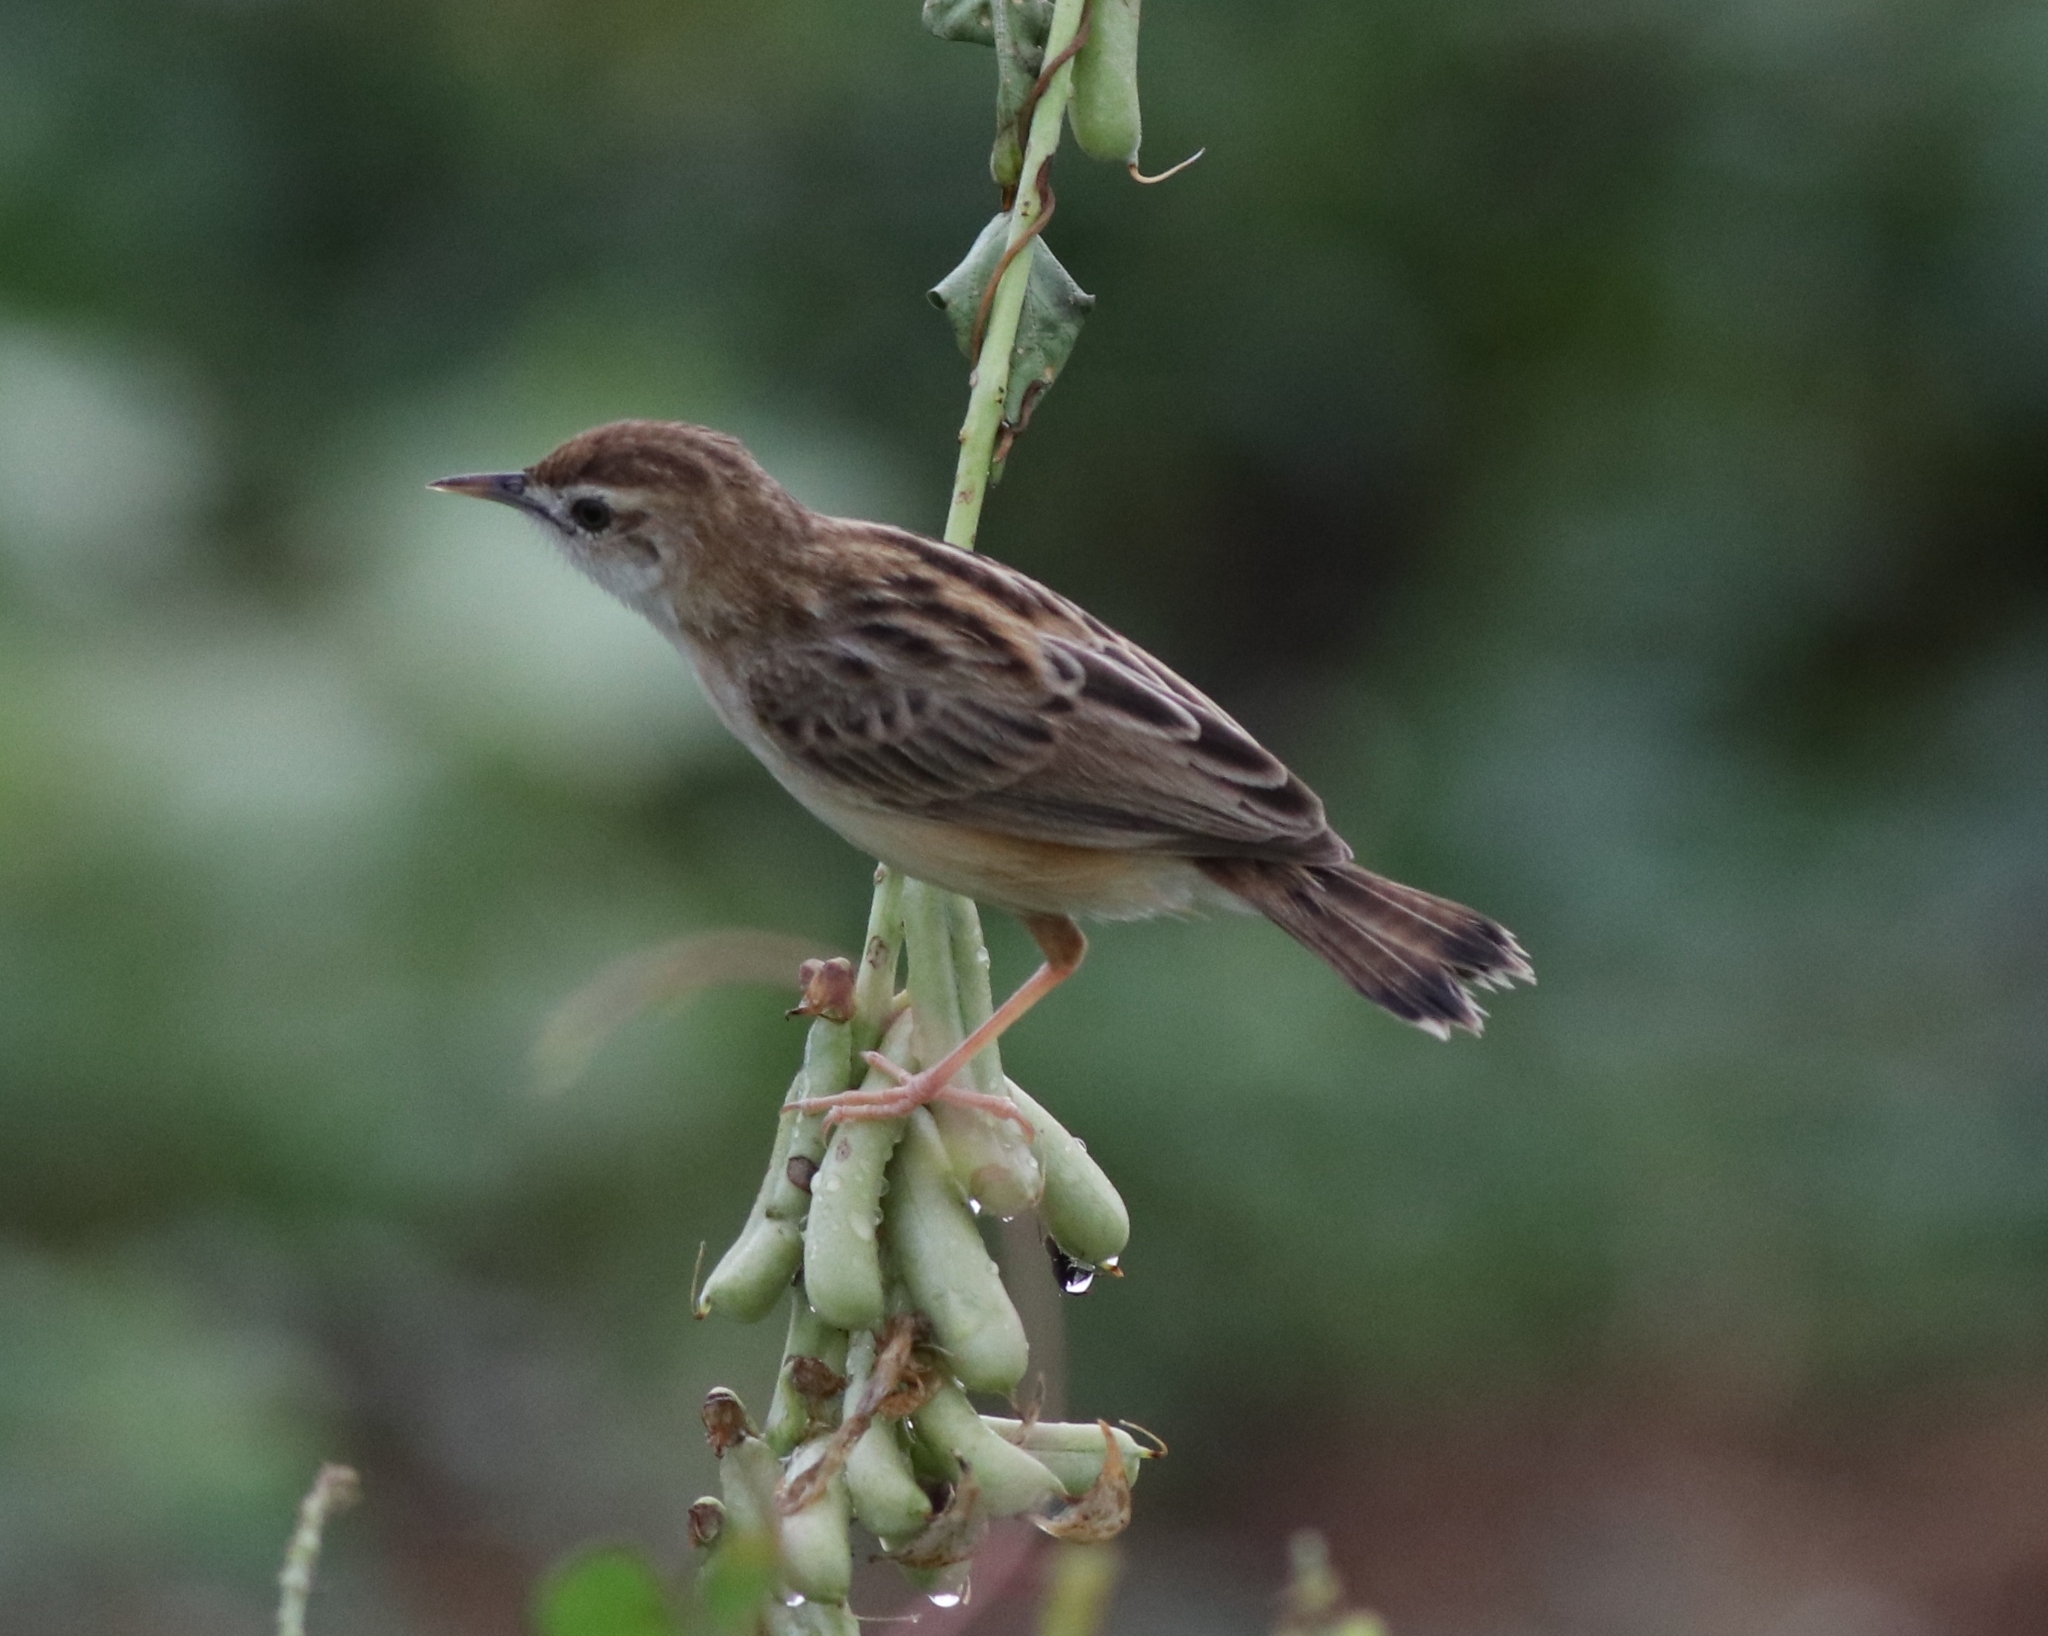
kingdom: Animalia
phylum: Chordata
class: Aves
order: Passeriformes
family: Cisticolidae
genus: Cisticola
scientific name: Cisticola juncidis
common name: Zitting cisticola
